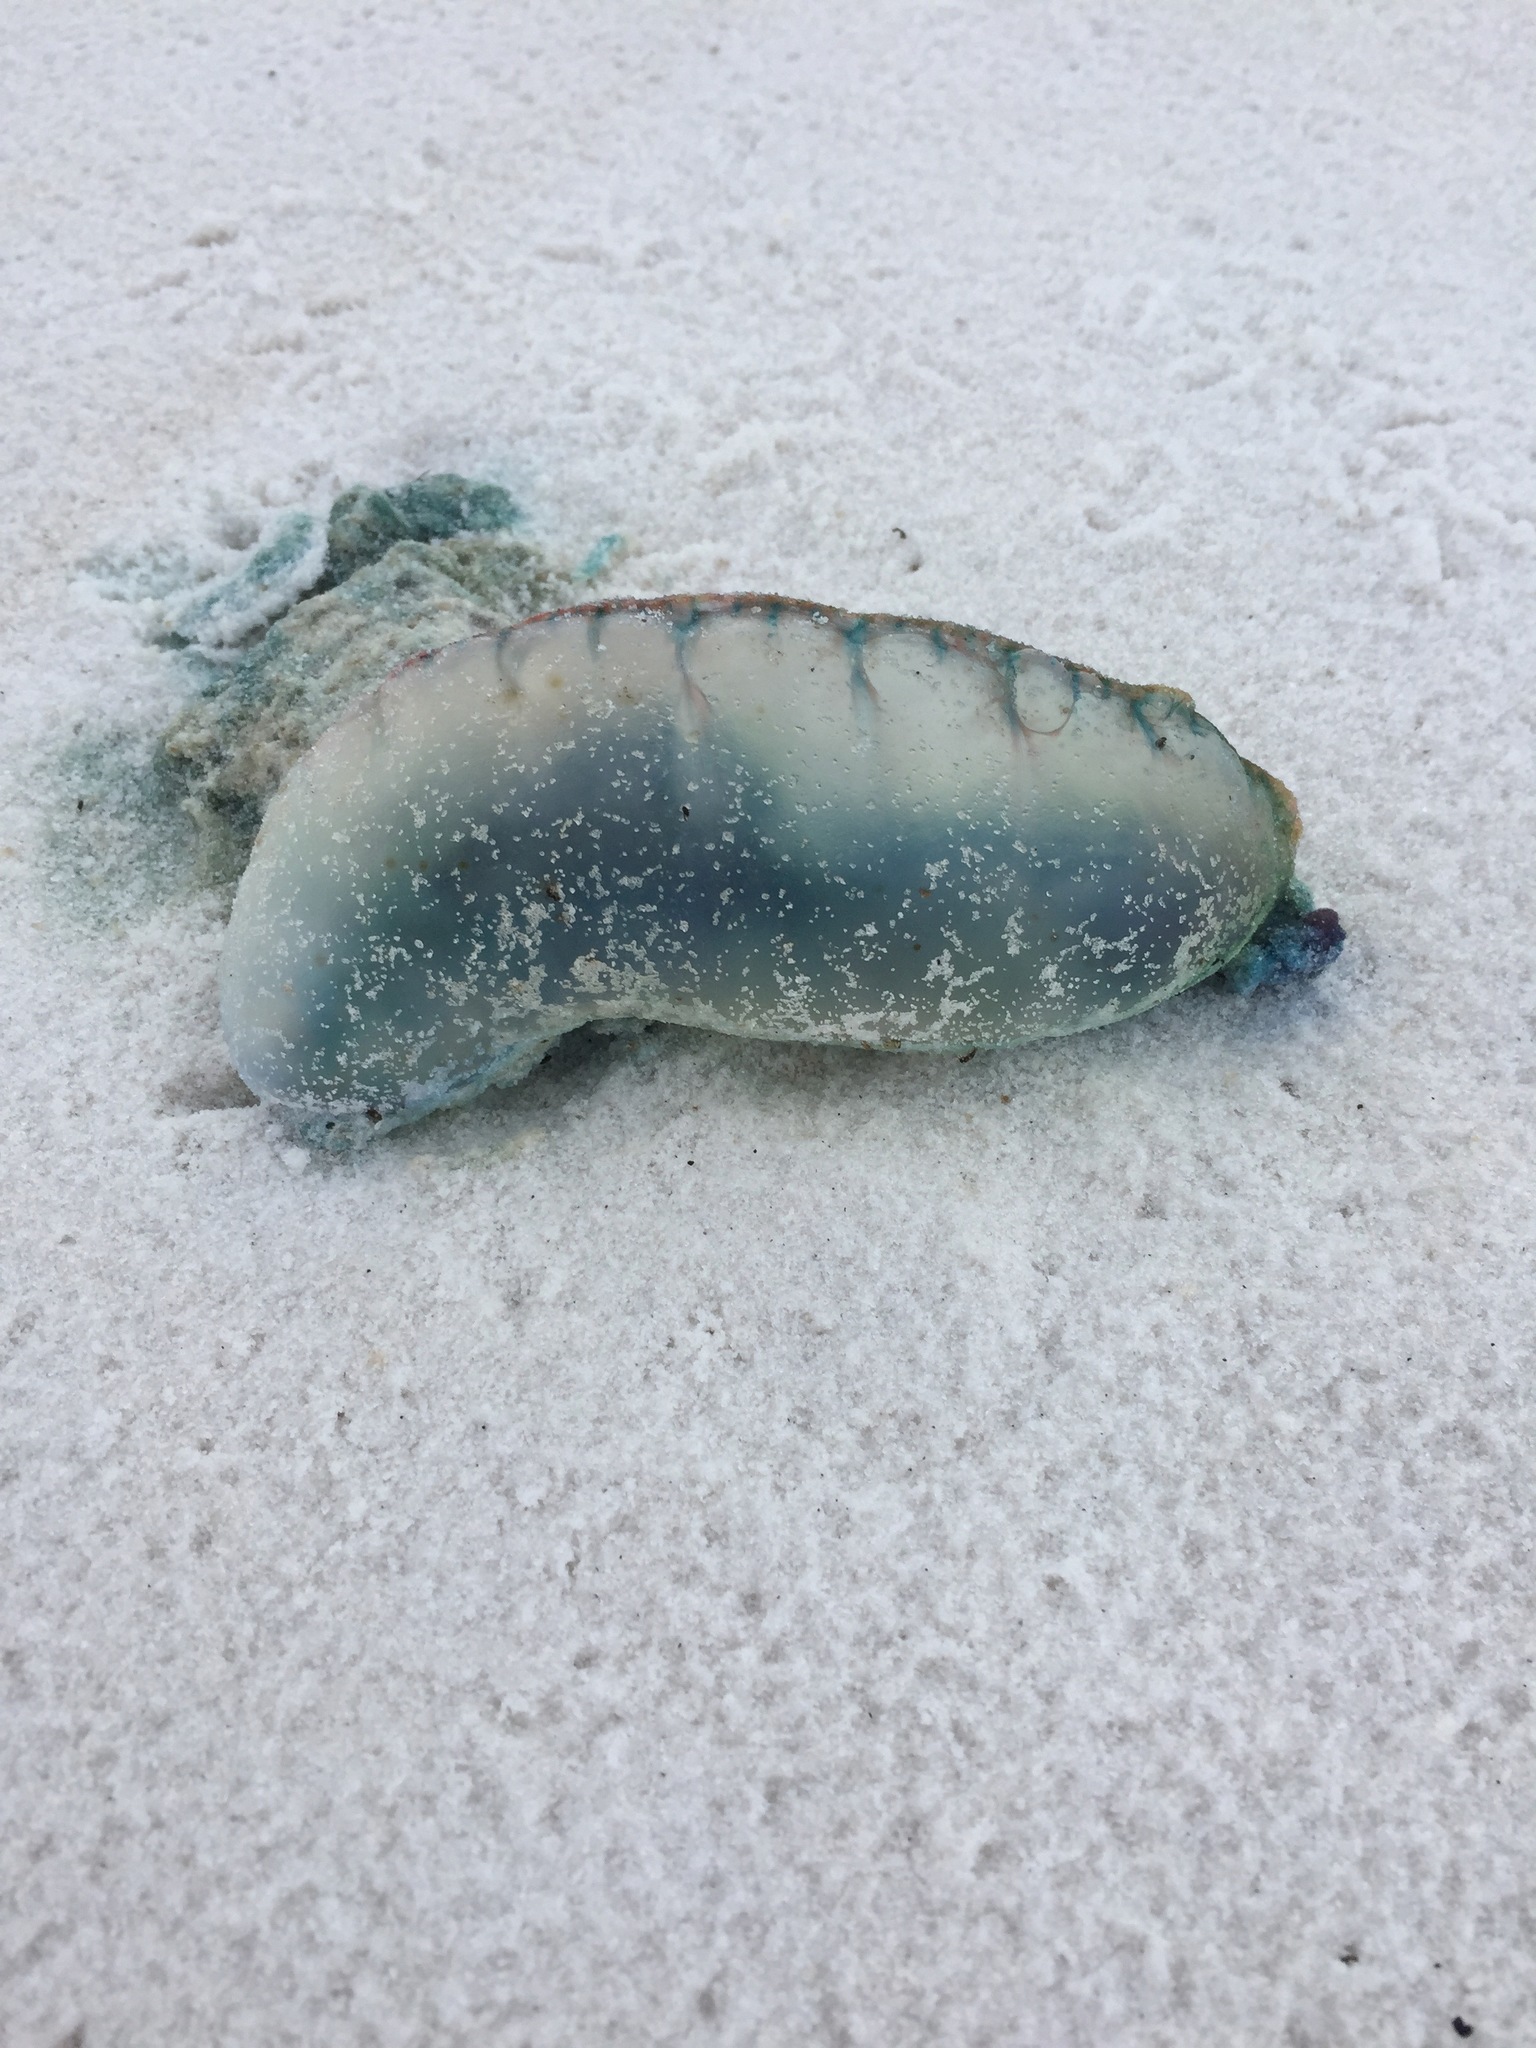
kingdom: Animalia
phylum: Cnidaria
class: Hydrozoa
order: Siphonophorae
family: Physaliidae
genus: Physalia
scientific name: Physalia physalis
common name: Portuguese man-of-war
